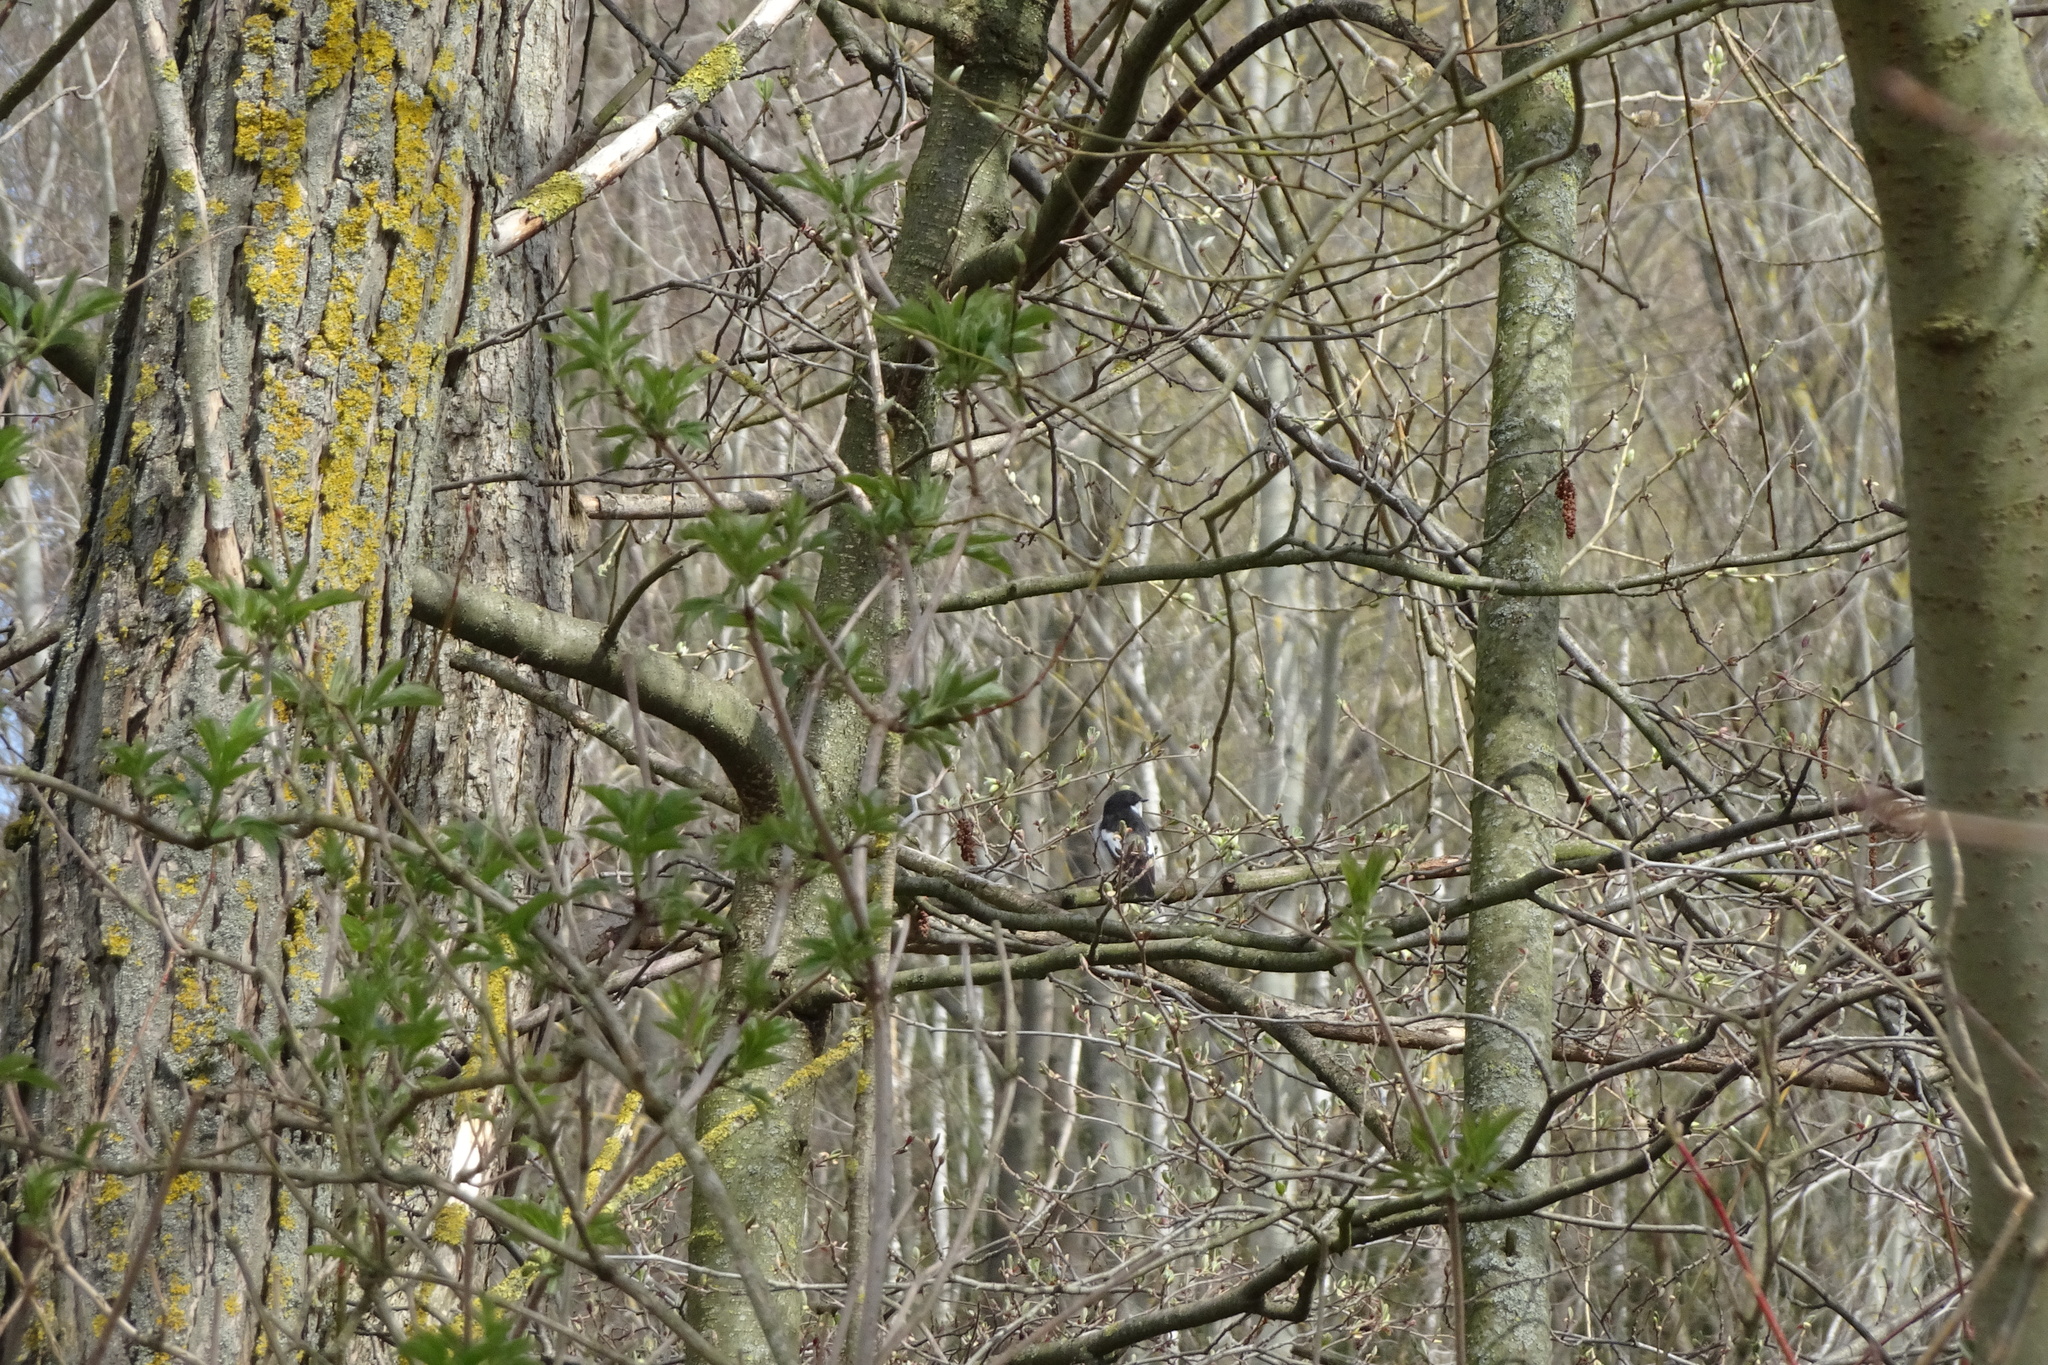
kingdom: Animalia
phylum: Chordata
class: Aves
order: Passeriformes
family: Muscicapidae
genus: Ficedula
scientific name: Ficedula hypoleuca
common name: European pied flycatcher
